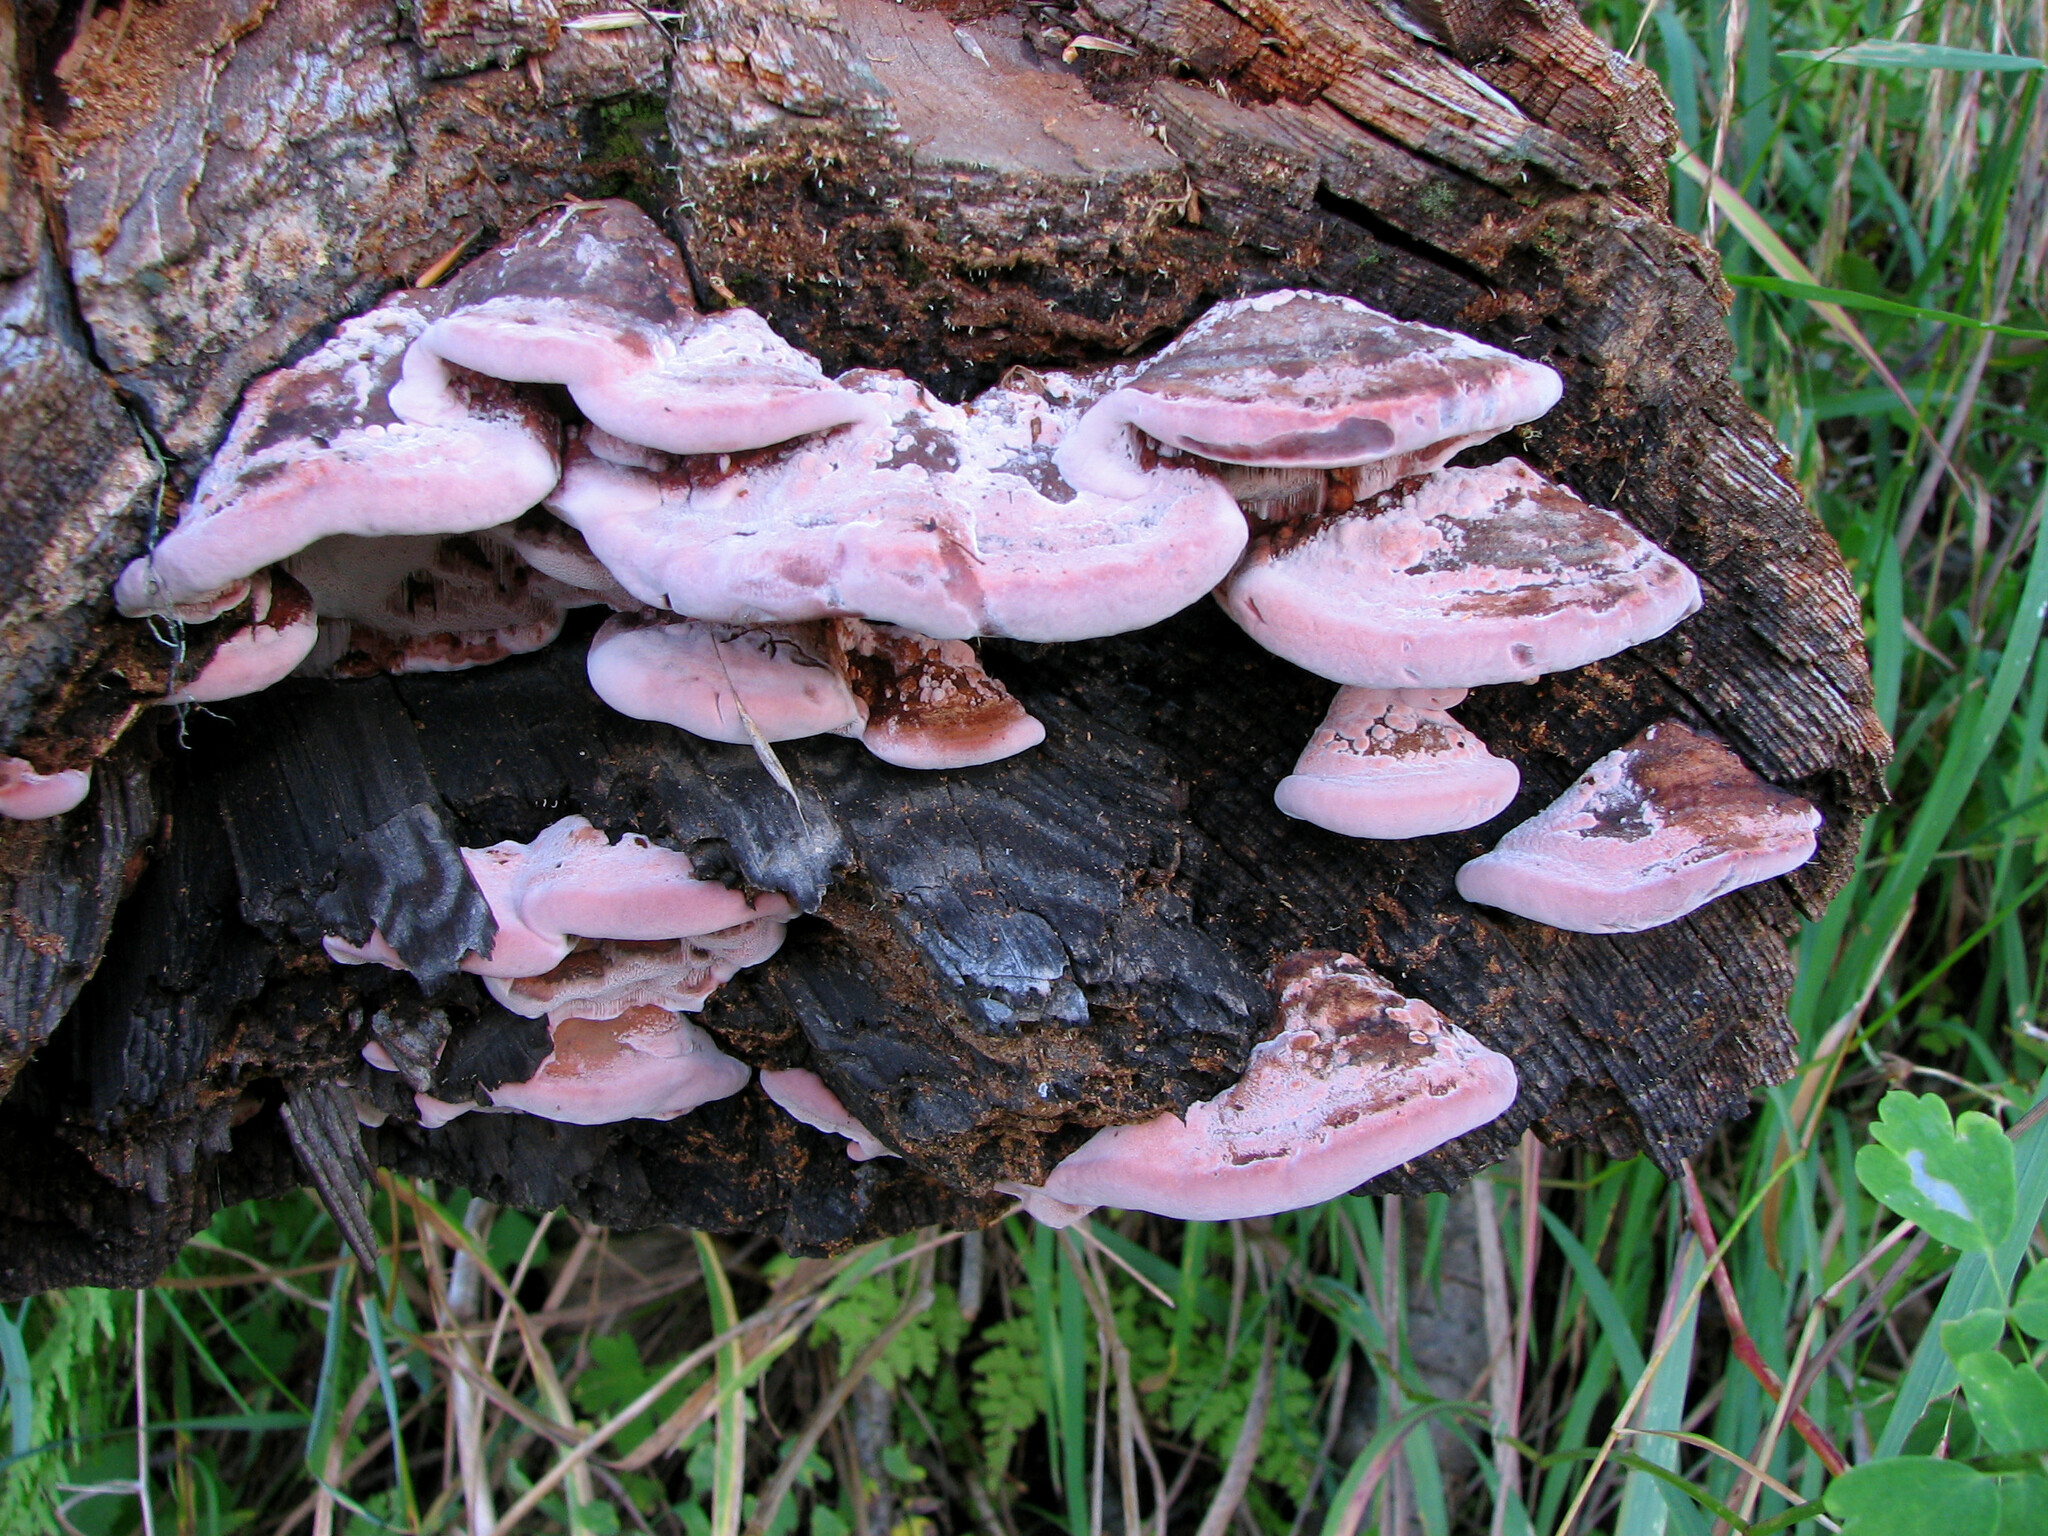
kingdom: Fungi
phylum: Basidiomycota
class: Agaricomycetes
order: Polyporales
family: Fomitopsidaceae
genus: Rhodofomes
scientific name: Rhodofomes cajanderi
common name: Rosy conk
